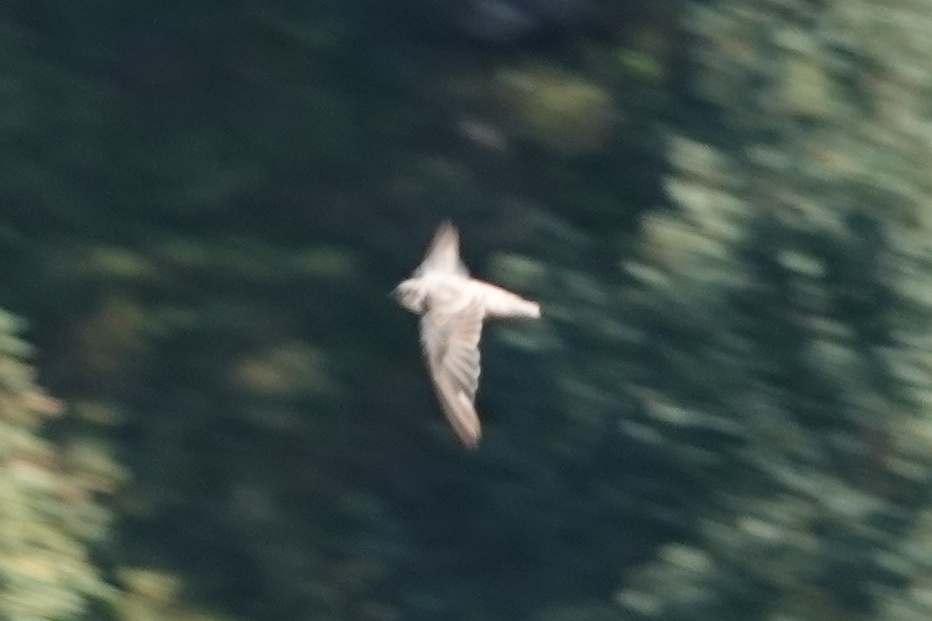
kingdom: Animalia
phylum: Chordata
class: Aves
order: Passeriformes
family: Hirundinidae
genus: Ptyonoprogne
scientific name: Ptyonoprogne rupestris
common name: Eurasian crag martin
